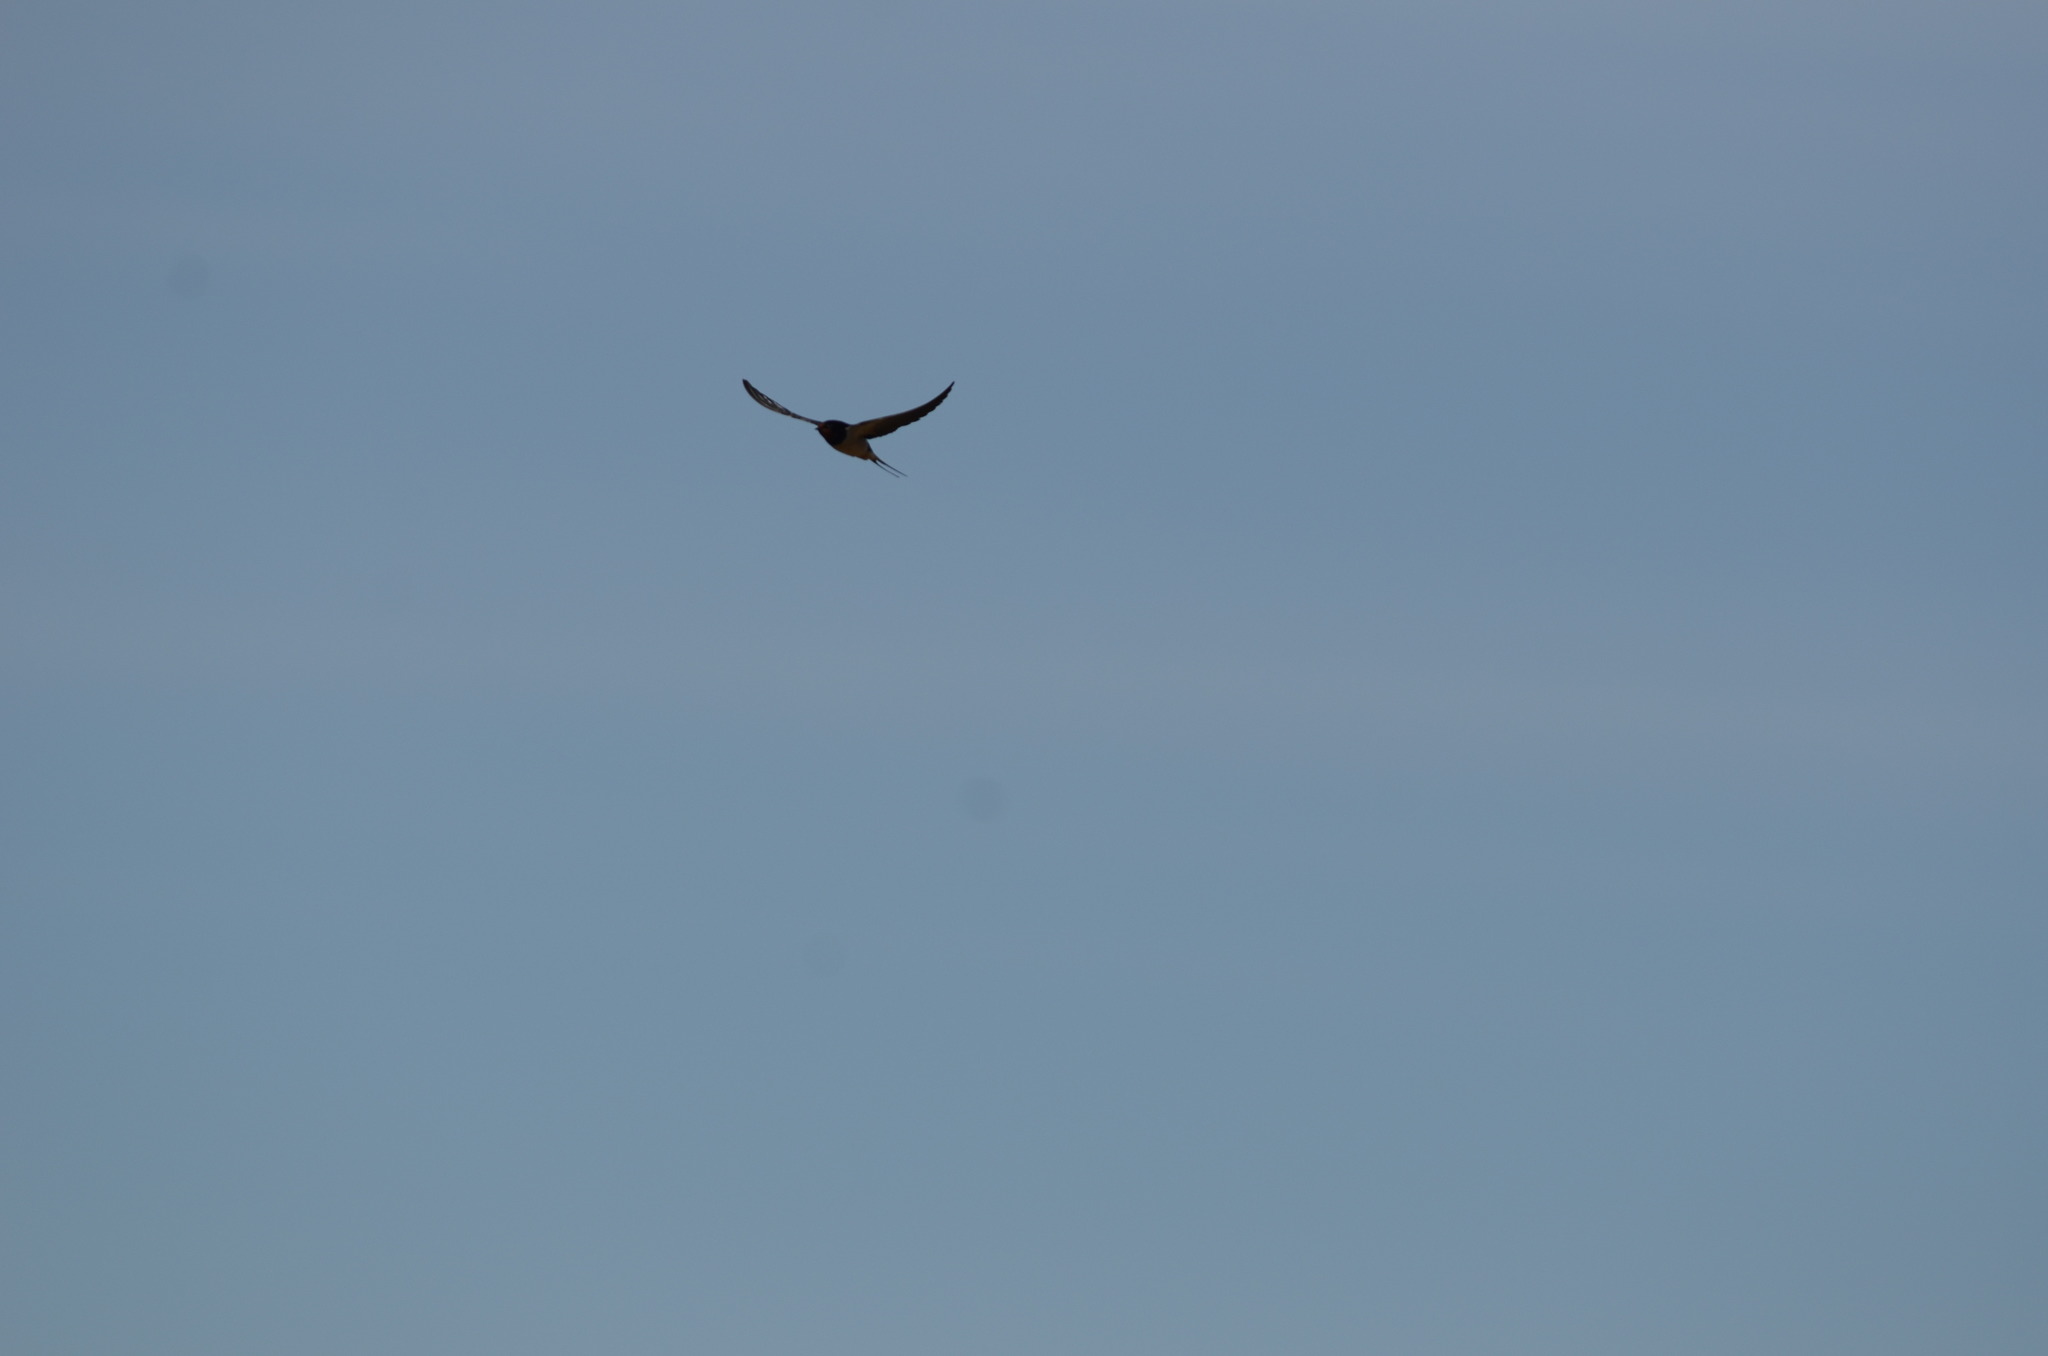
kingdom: Animalia
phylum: Chordata
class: Aves
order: Passeriformes
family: Hirundinidae
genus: Hirundo
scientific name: Hirundo rustica
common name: Barn swallow
